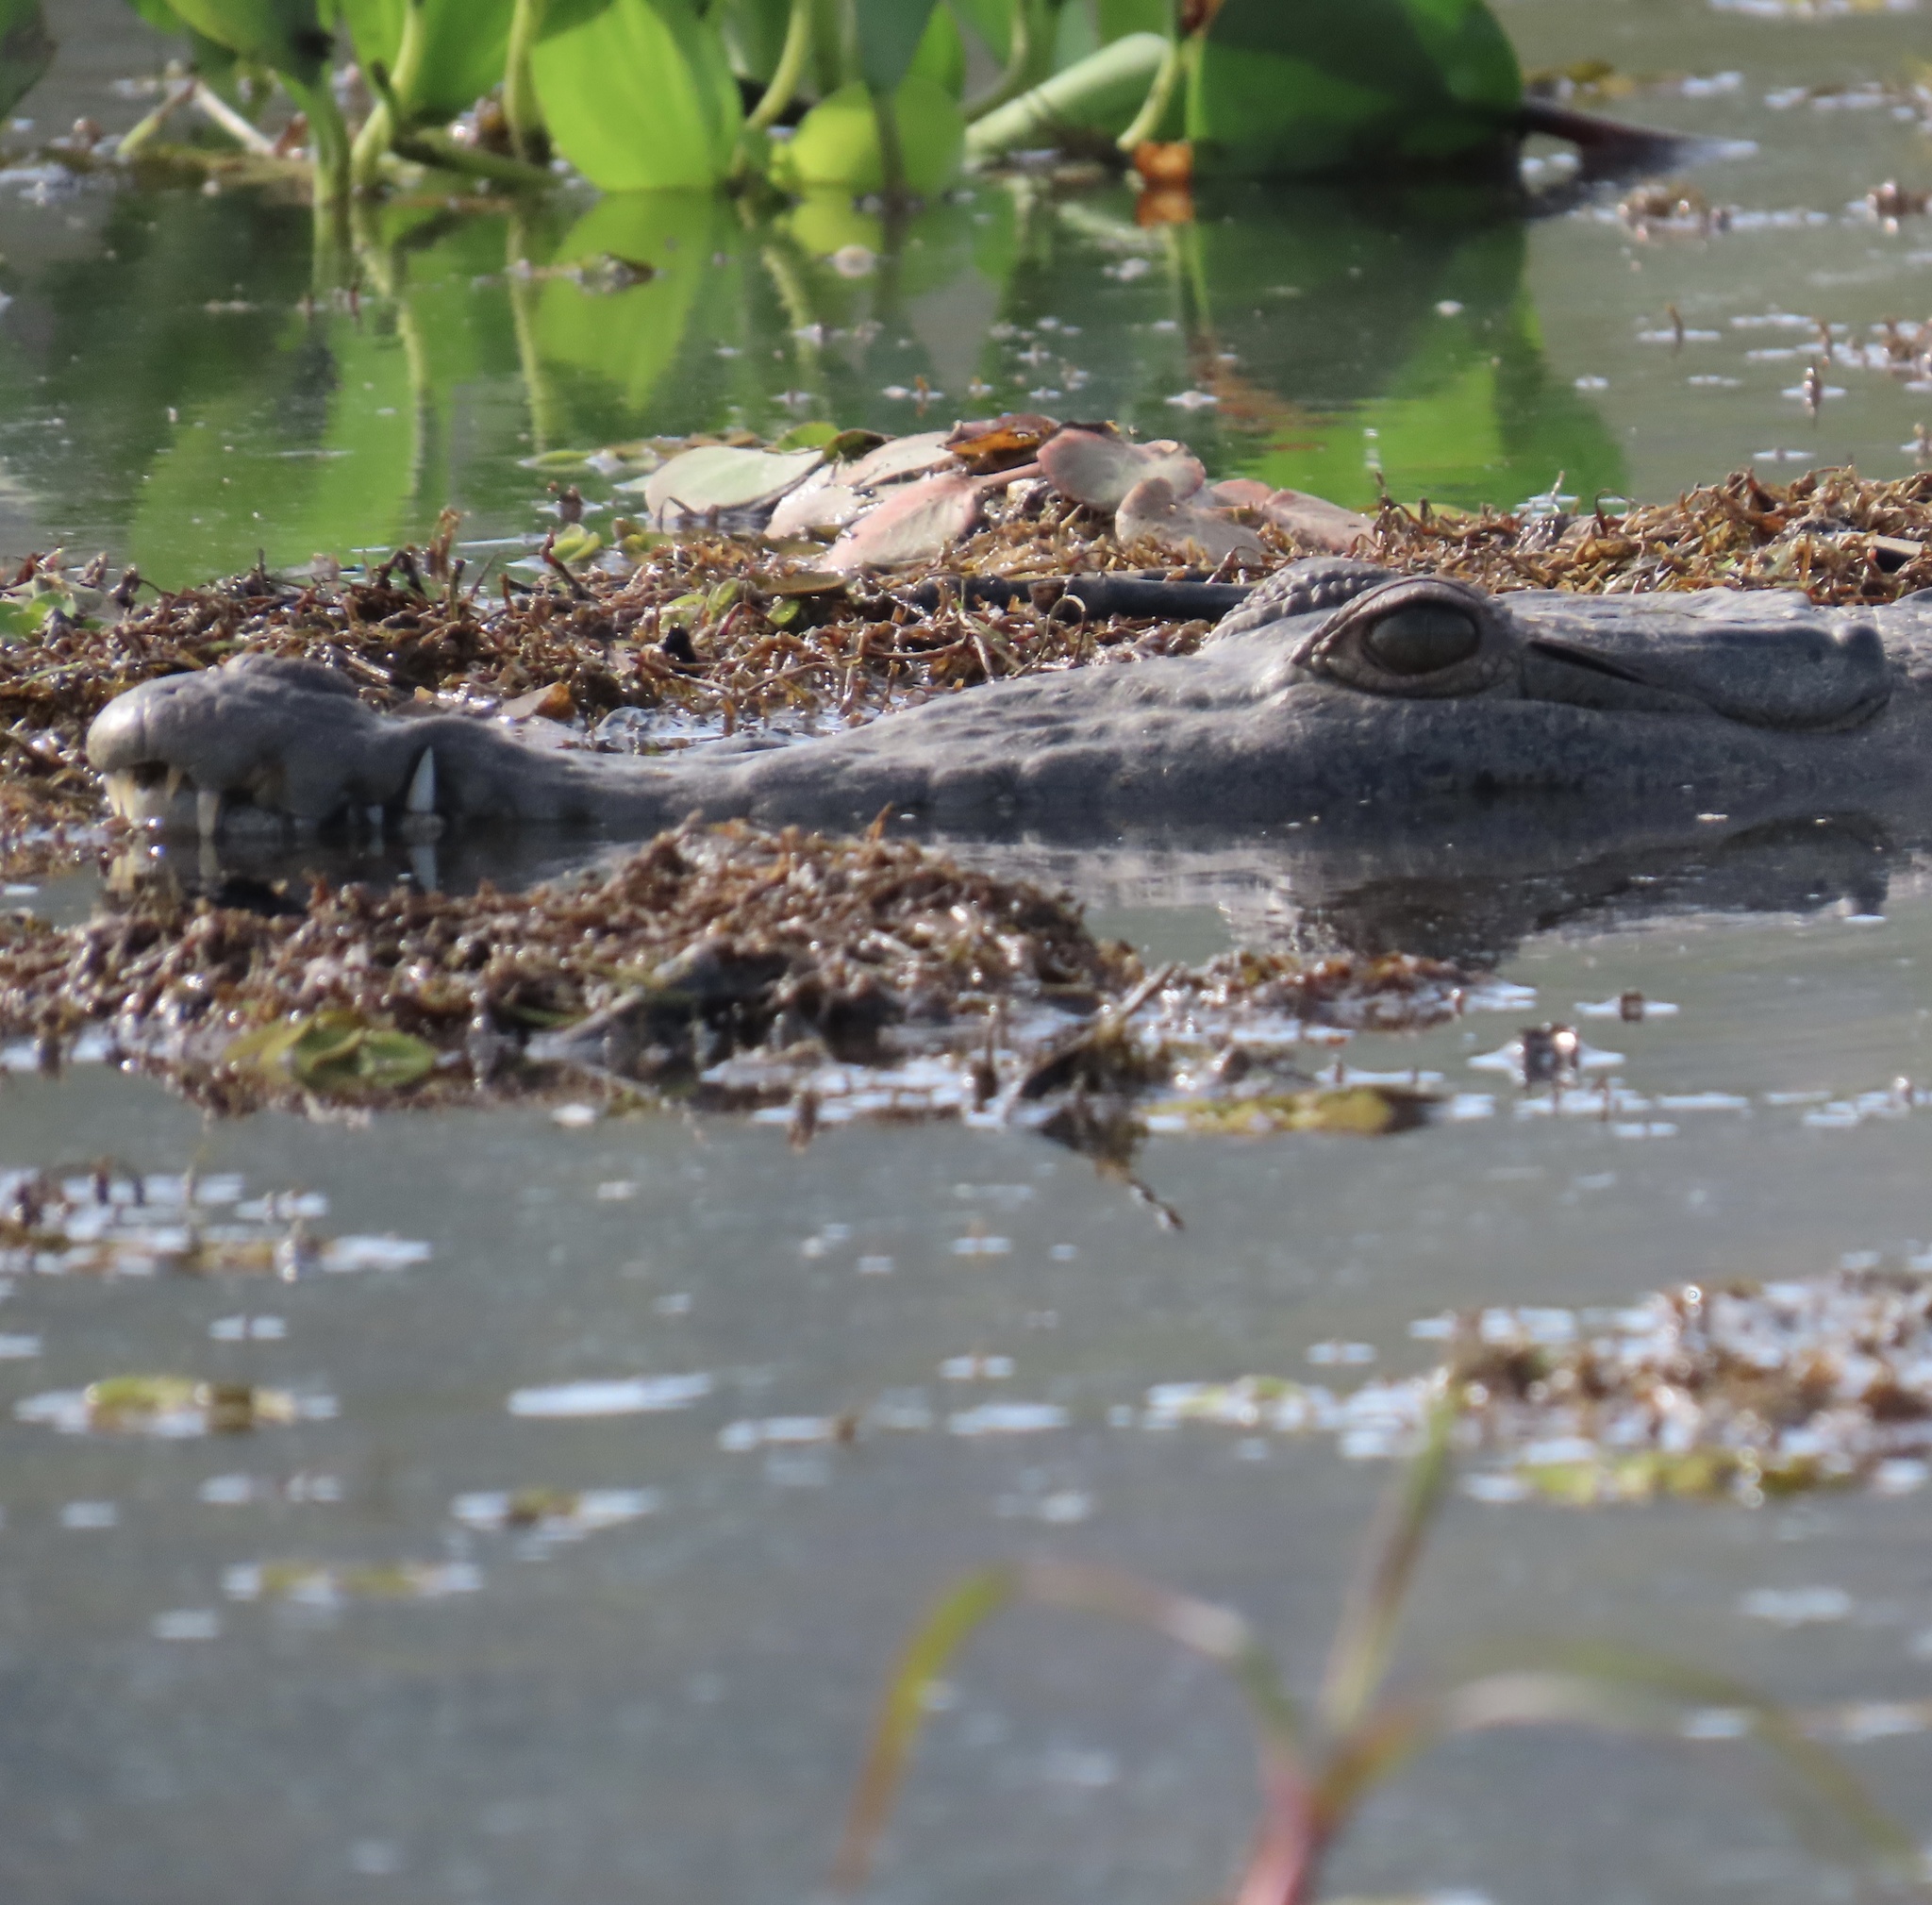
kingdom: Animalia
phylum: Chordata
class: Crocodylia
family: Crocodylidae
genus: Crocodylus
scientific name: Crocodylus acutus
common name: American crocodile
